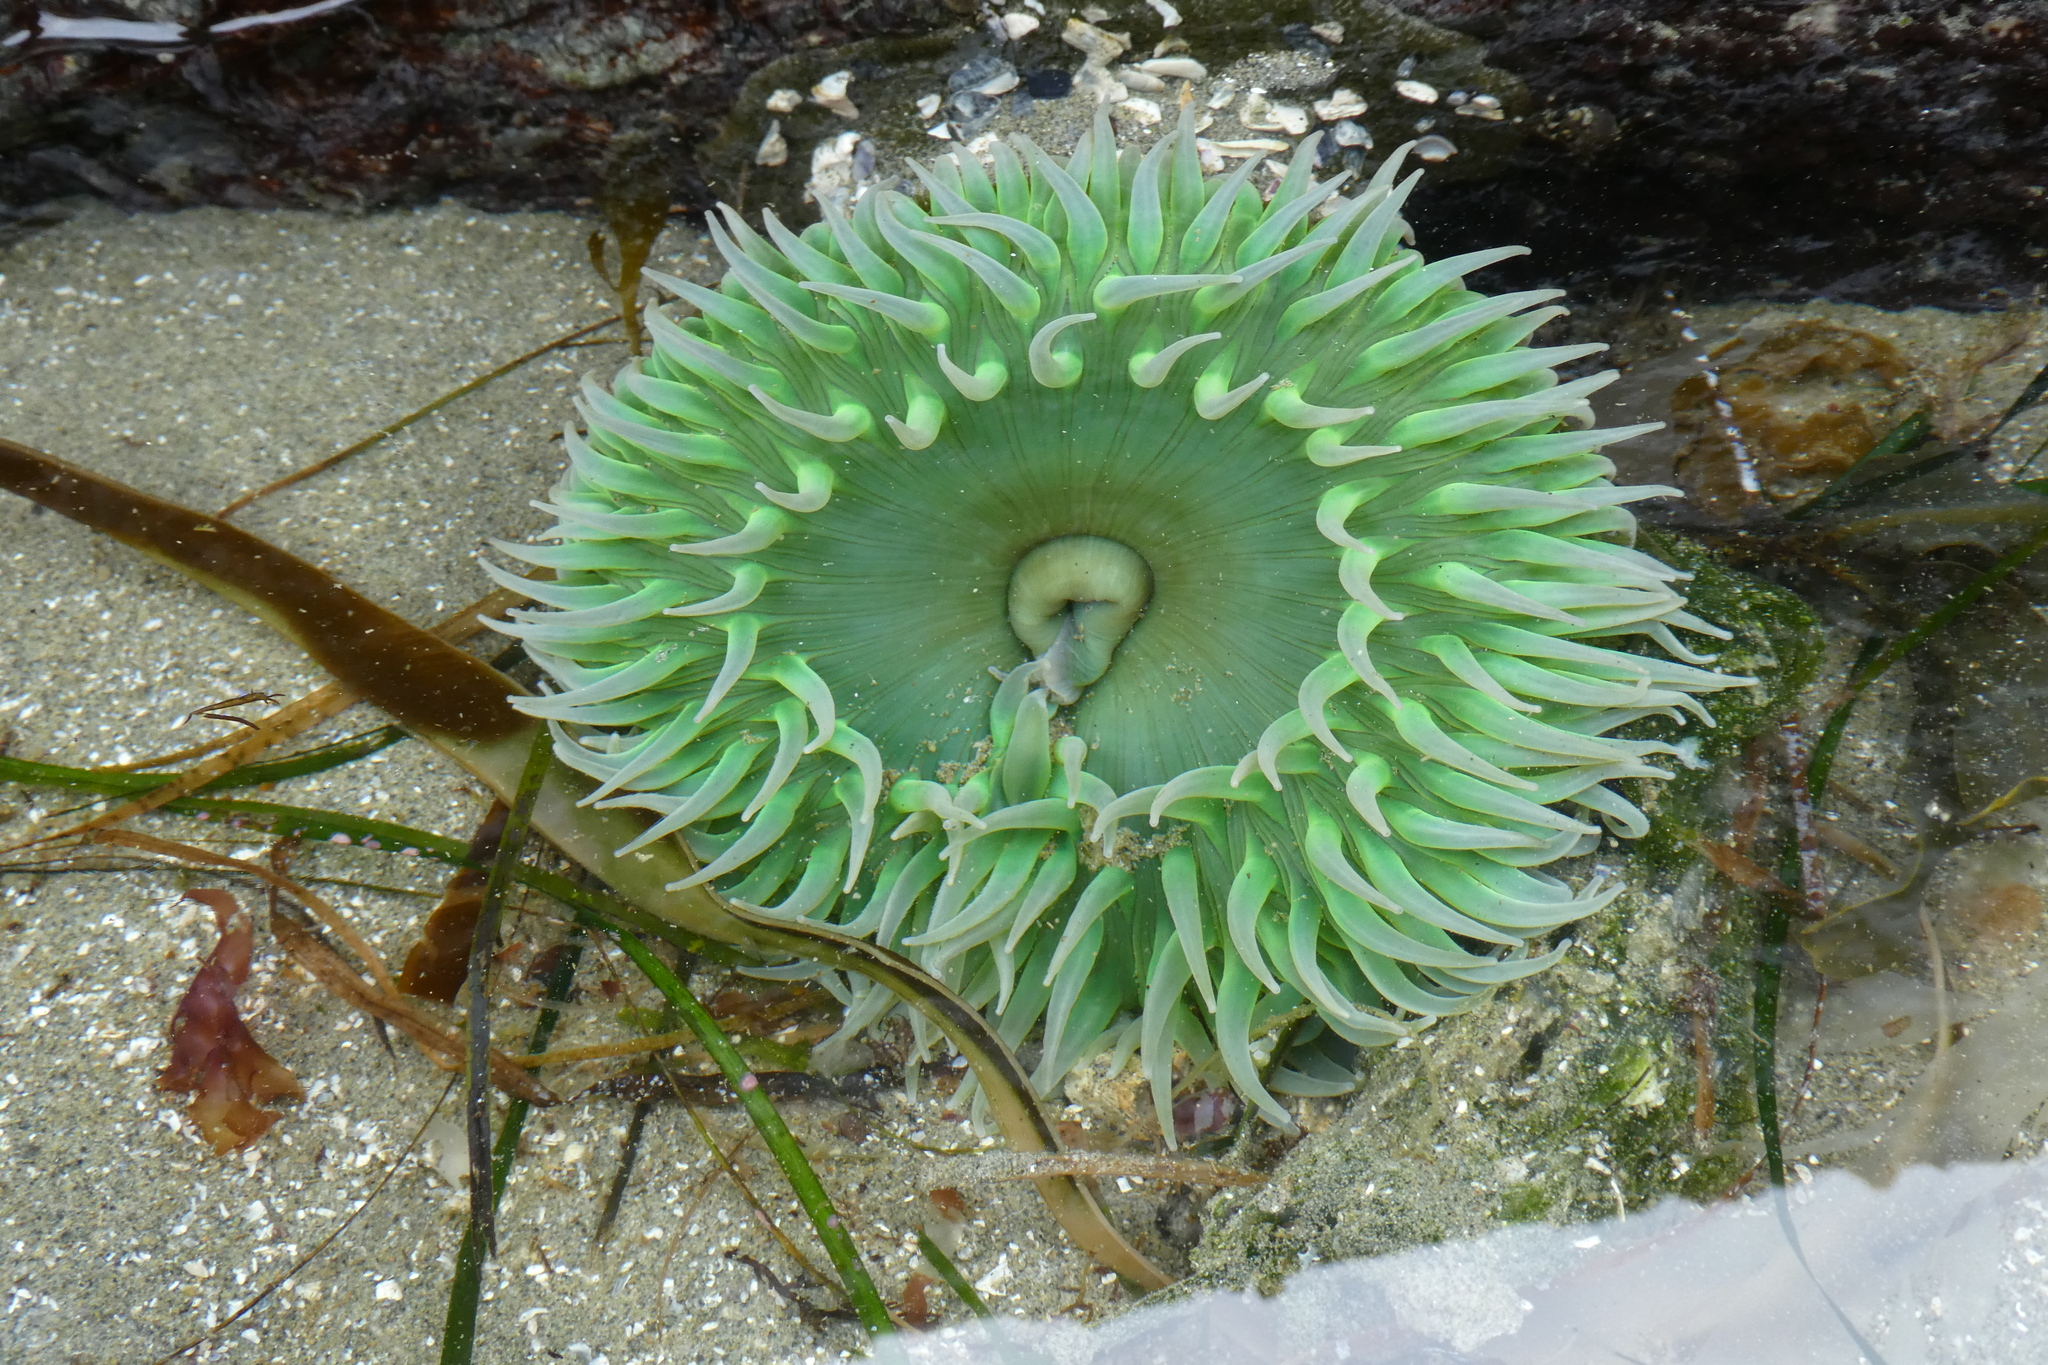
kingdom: Animalia
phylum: Cnidaria
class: Anthozoa
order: Actiniaria
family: Actiniidae
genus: Anthopleura
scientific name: Anthopleura xanthogrammica
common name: Giant green anemone
